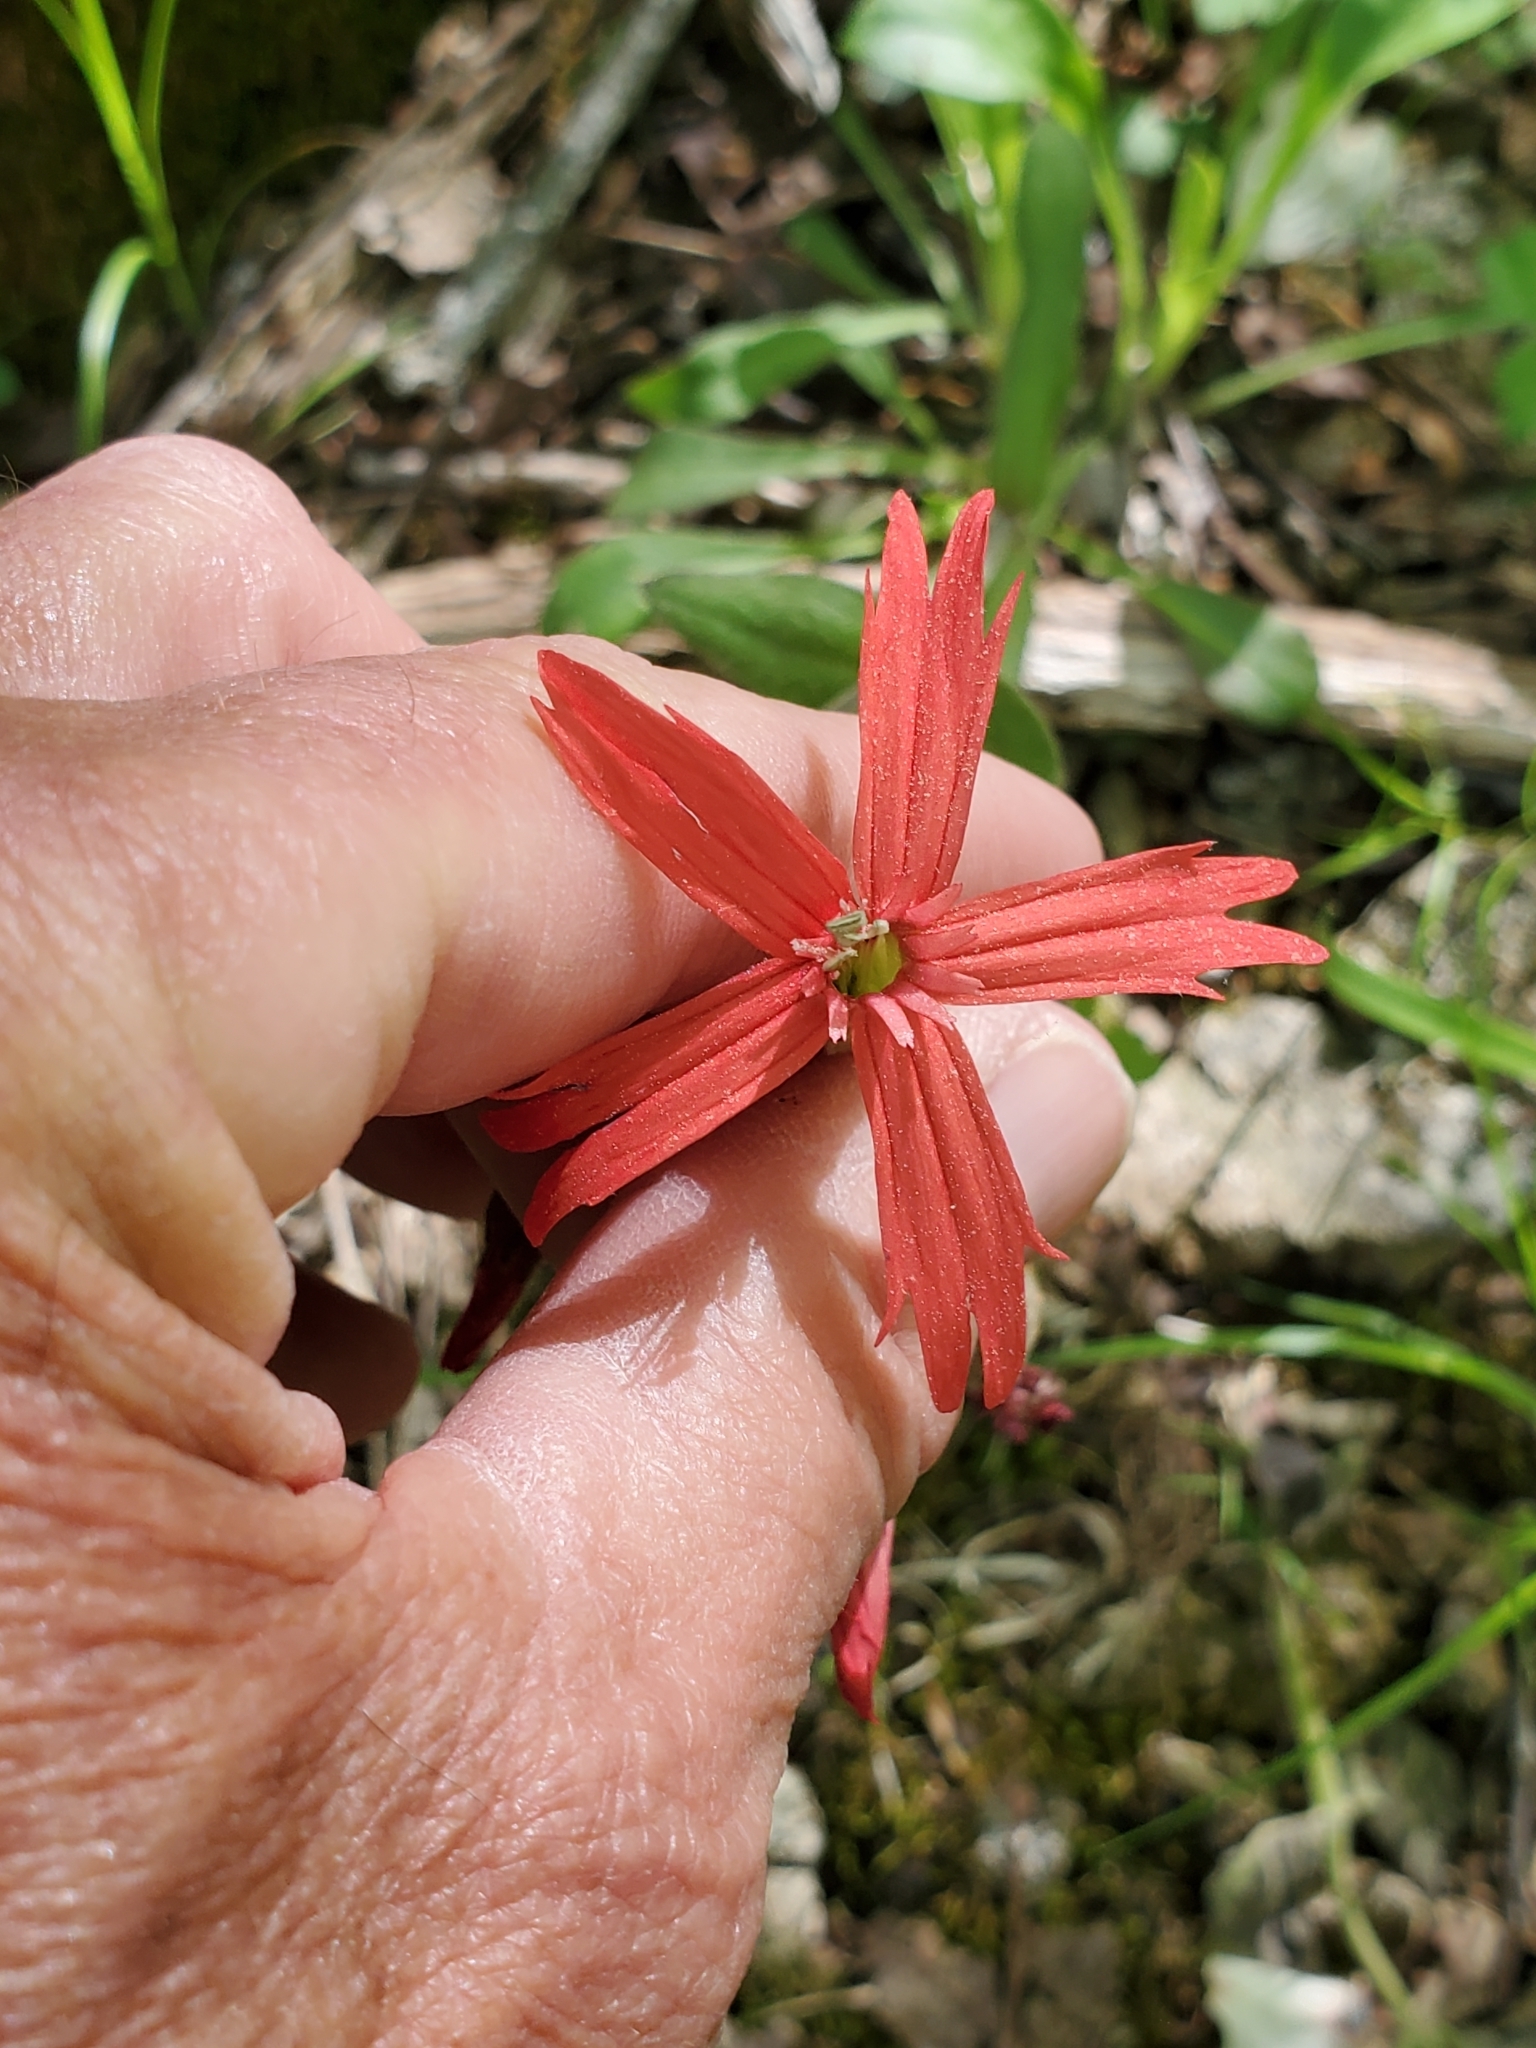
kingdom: Plantae
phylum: Tracheophyta
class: Magnoliopsida
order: Caryophyllales
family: Caryophyllaceae
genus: Silene
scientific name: Silene virginica
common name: Fire-pink
